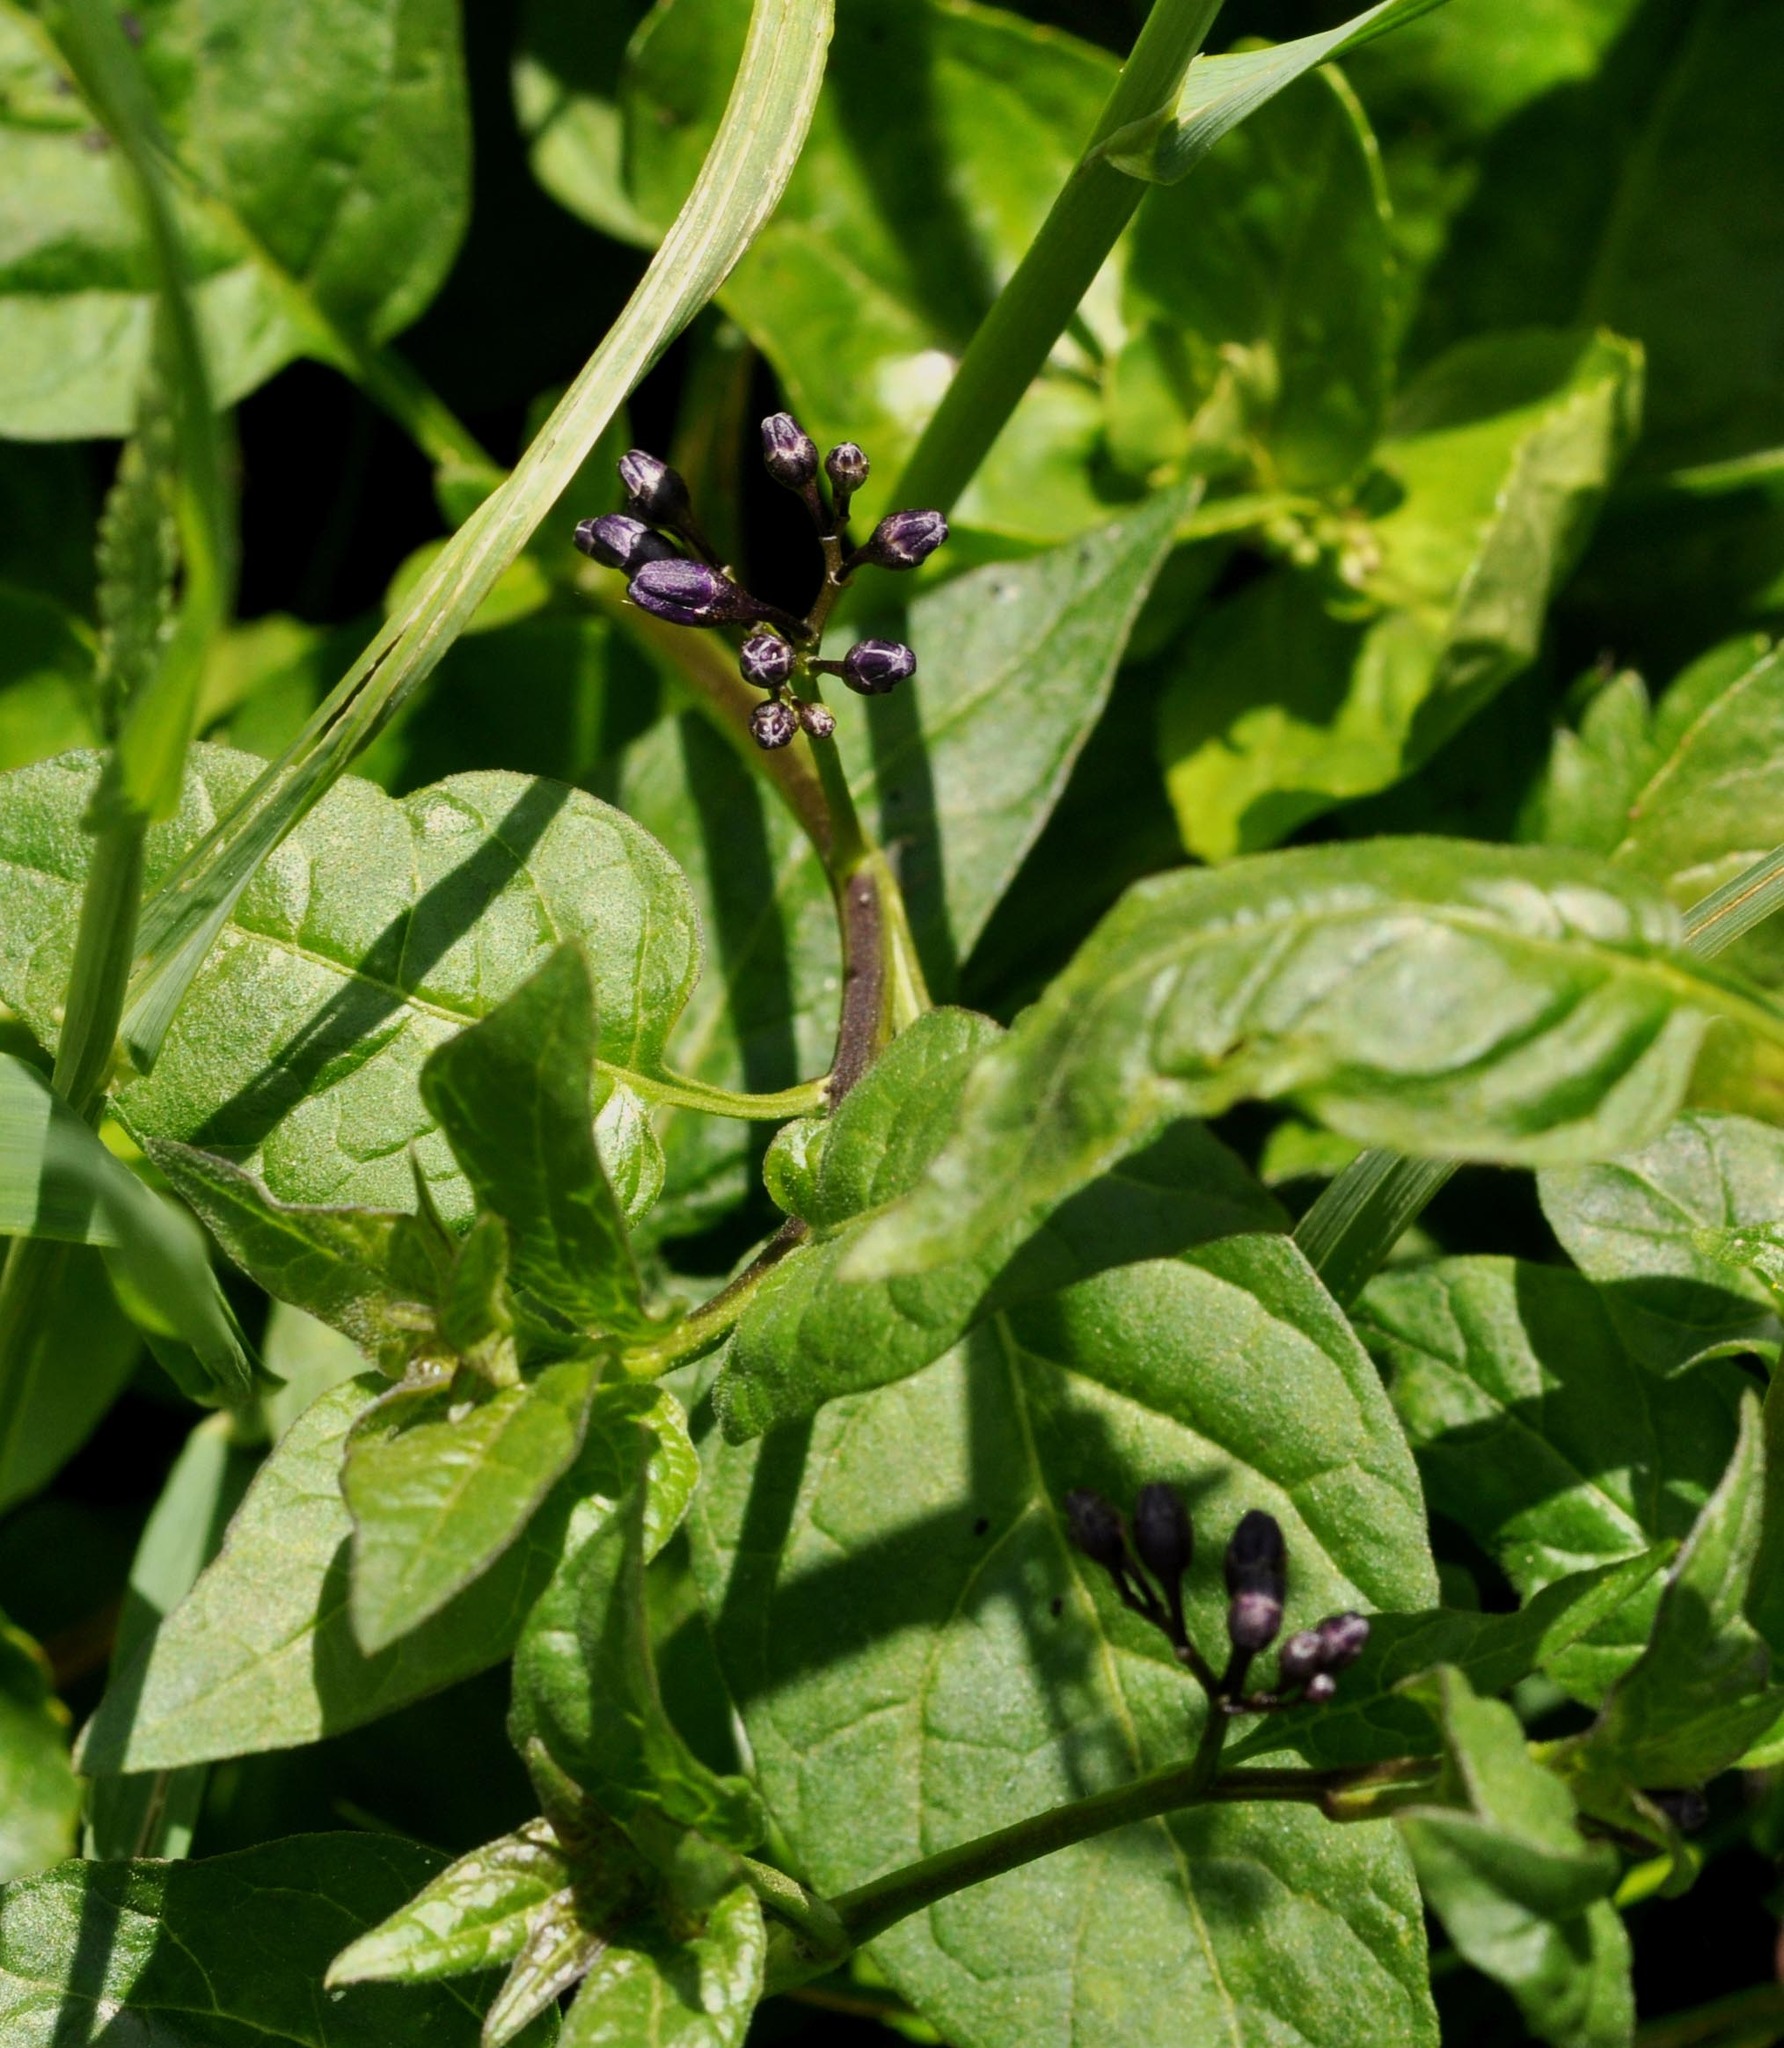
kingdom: Plantae
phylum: Tracheophyta
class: Magnoliopsida
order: Solanales
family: Solanaceae
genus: Solanum
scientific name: Solanum dulcamara
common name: Climbing nightshade
